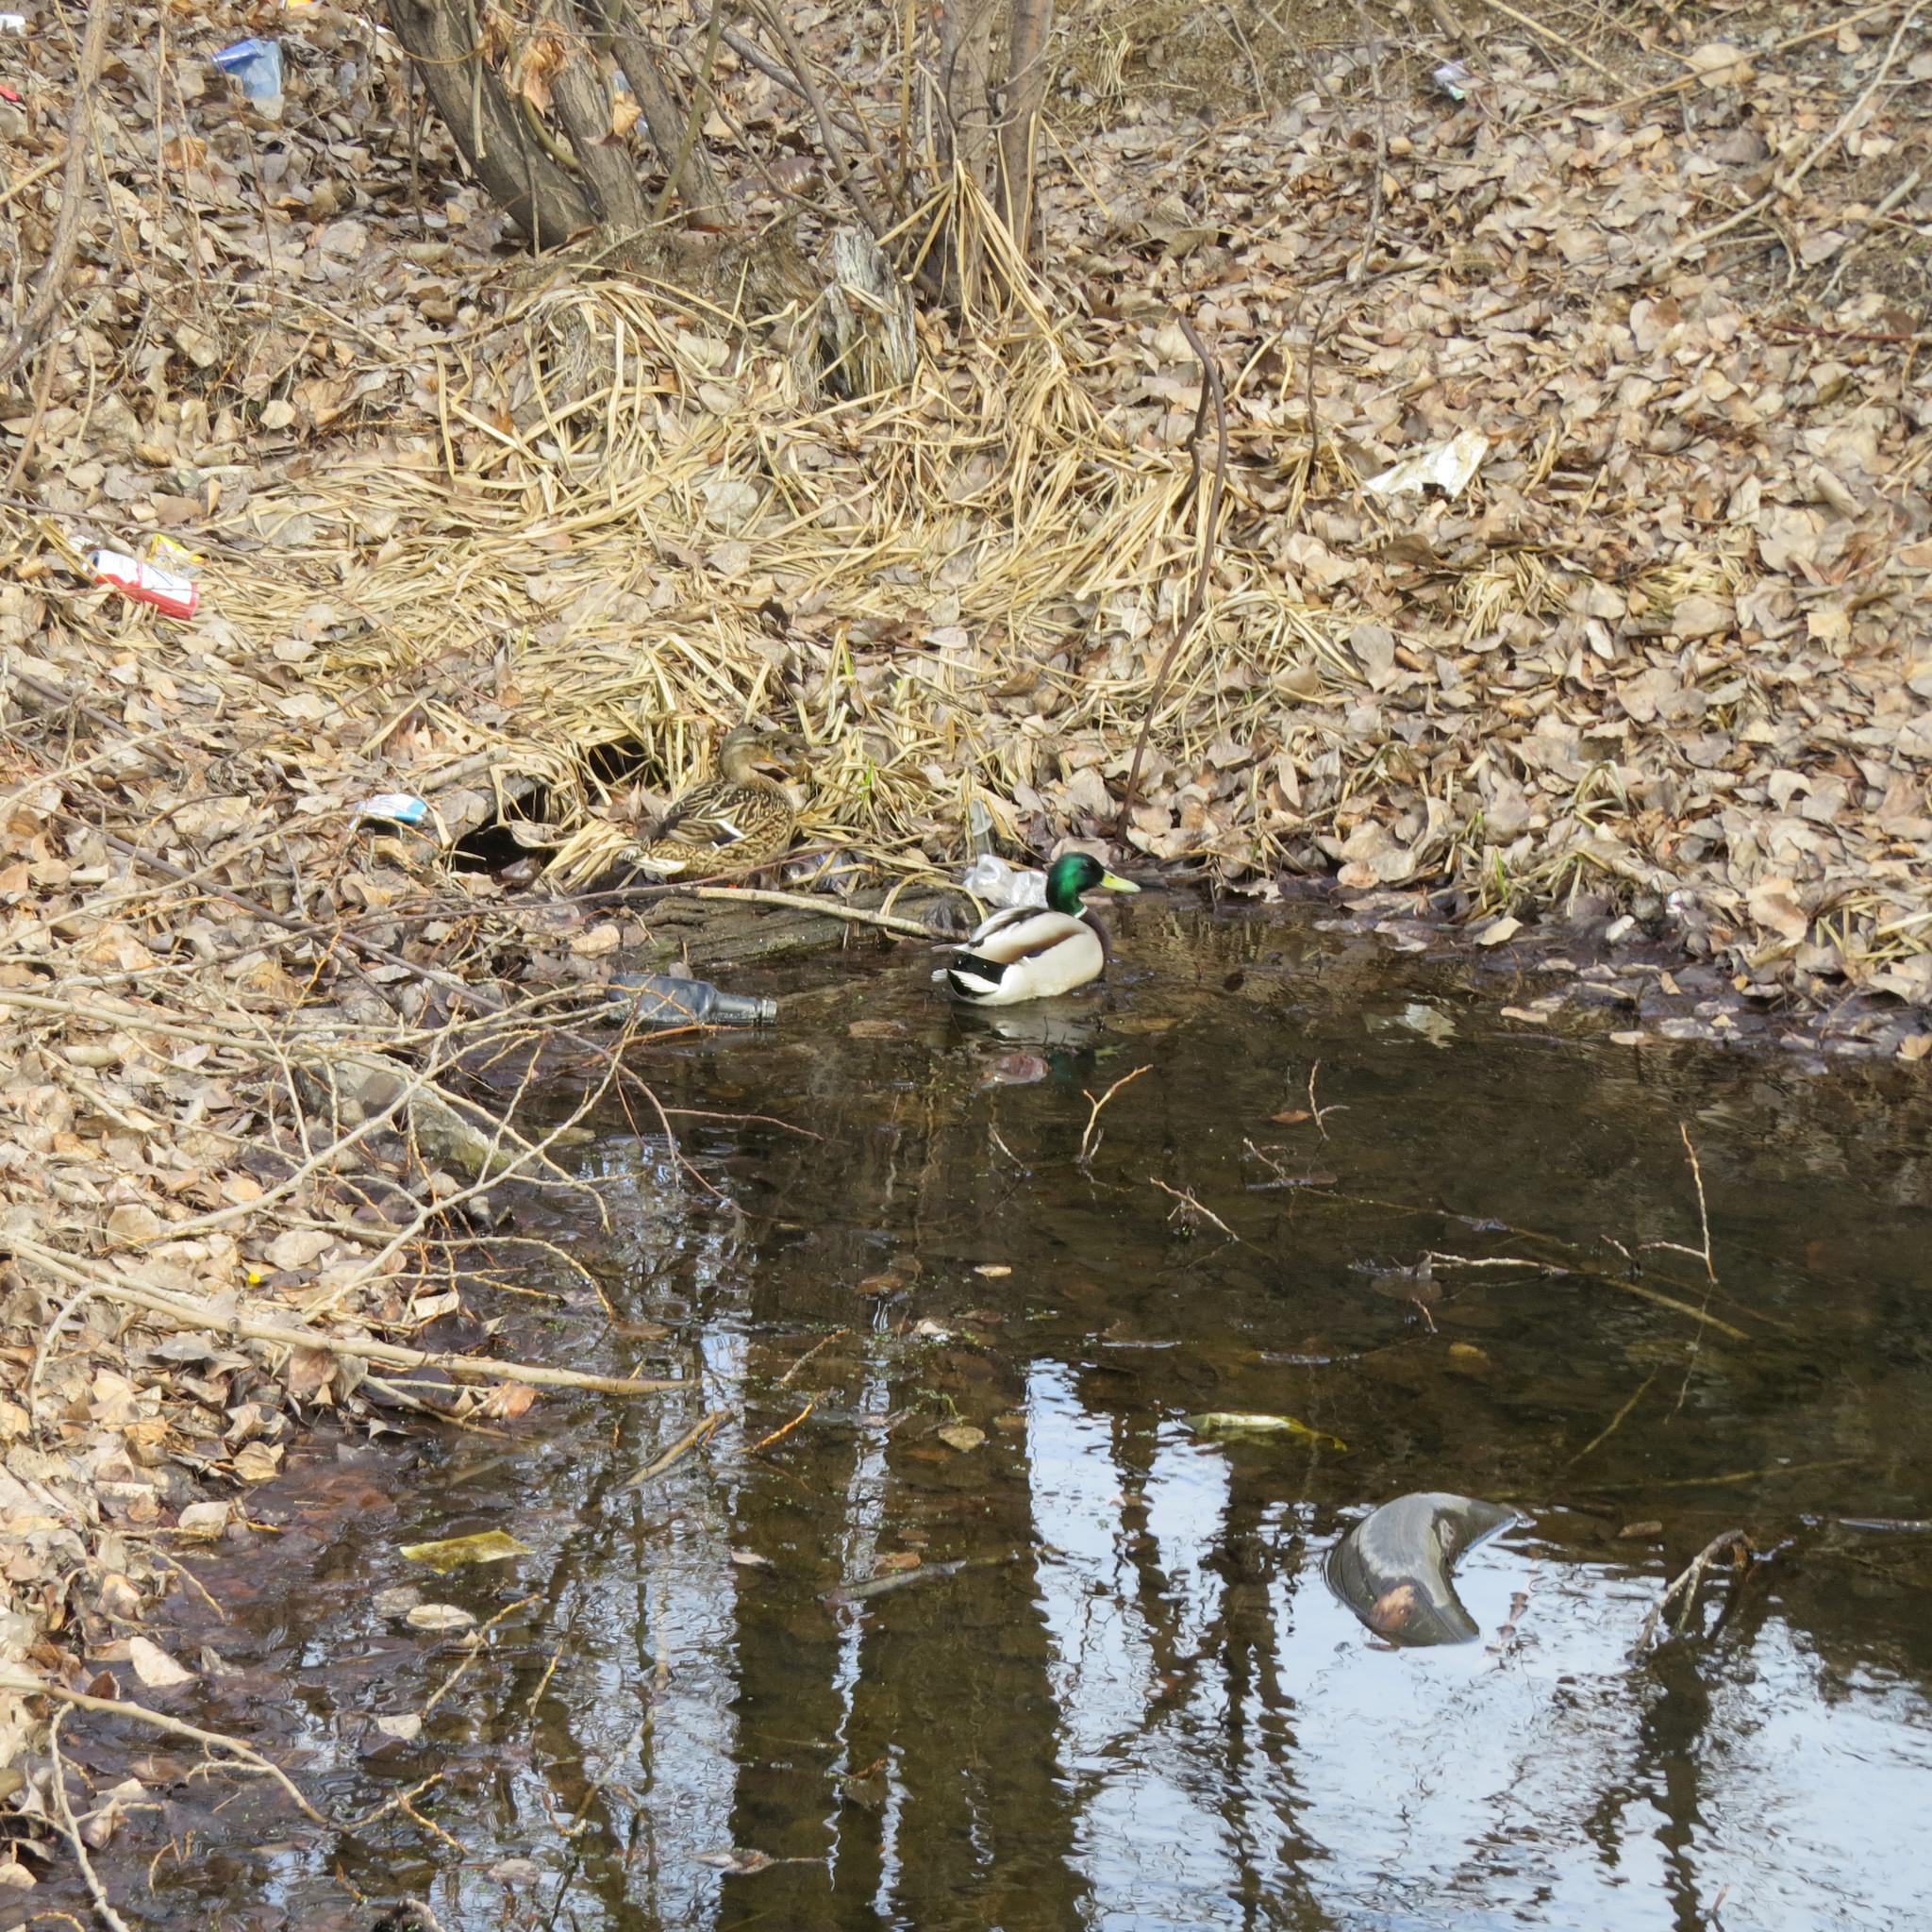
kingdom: Animalia
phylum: Chordata
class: Aves
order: Anseriformes
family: Anatidae
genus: Anas
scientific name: Anas platyrhynchos
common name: Mallard
